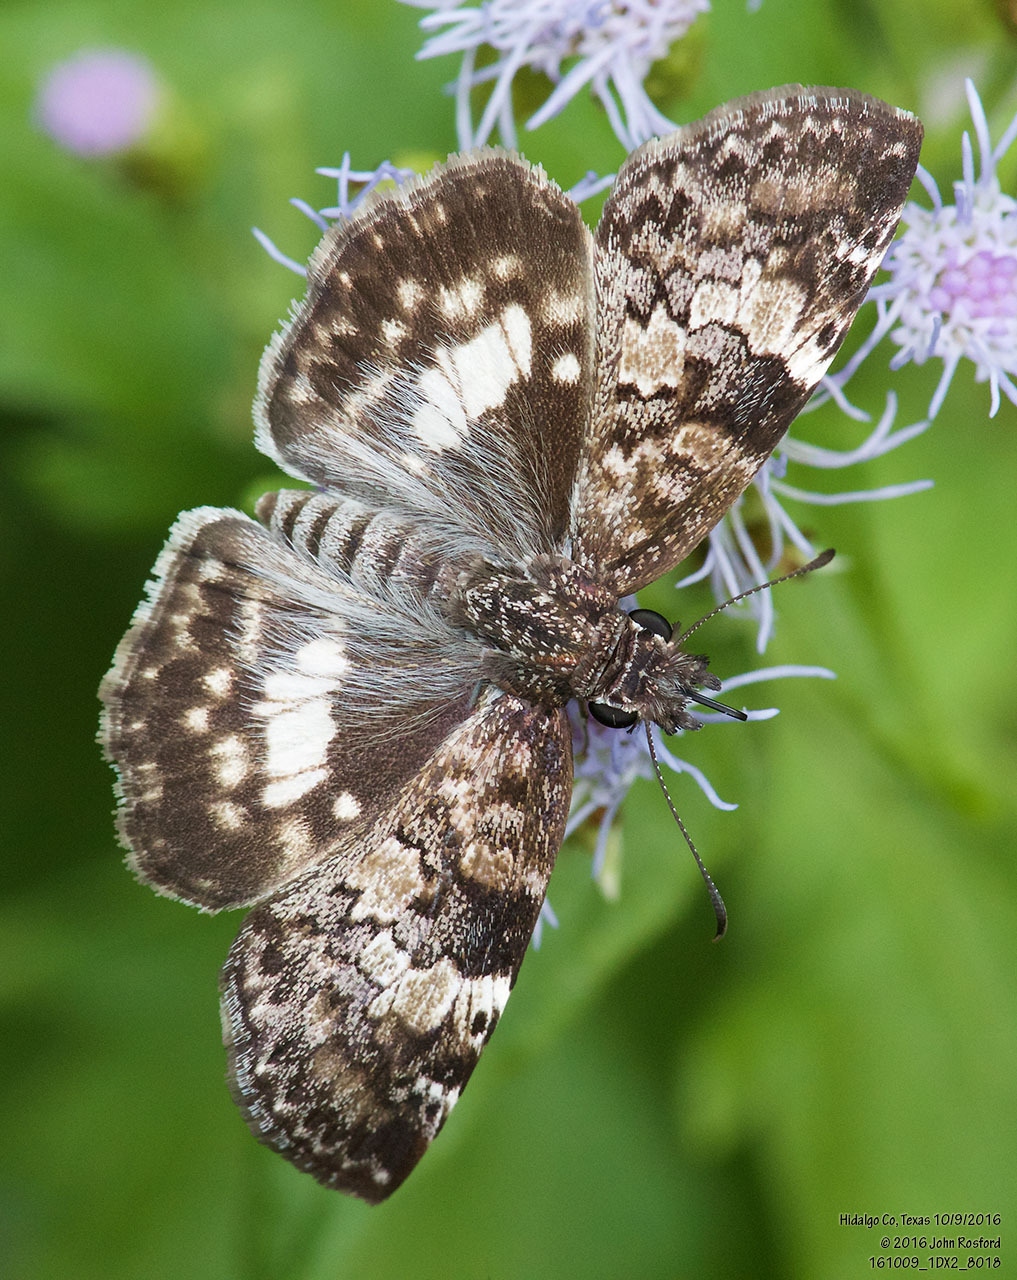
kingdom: Animalia
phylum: Arthropoda
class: Insecta
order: Lepidoptera
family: Hesperiidae
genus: Chiothion
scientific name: Chiothion georgina
